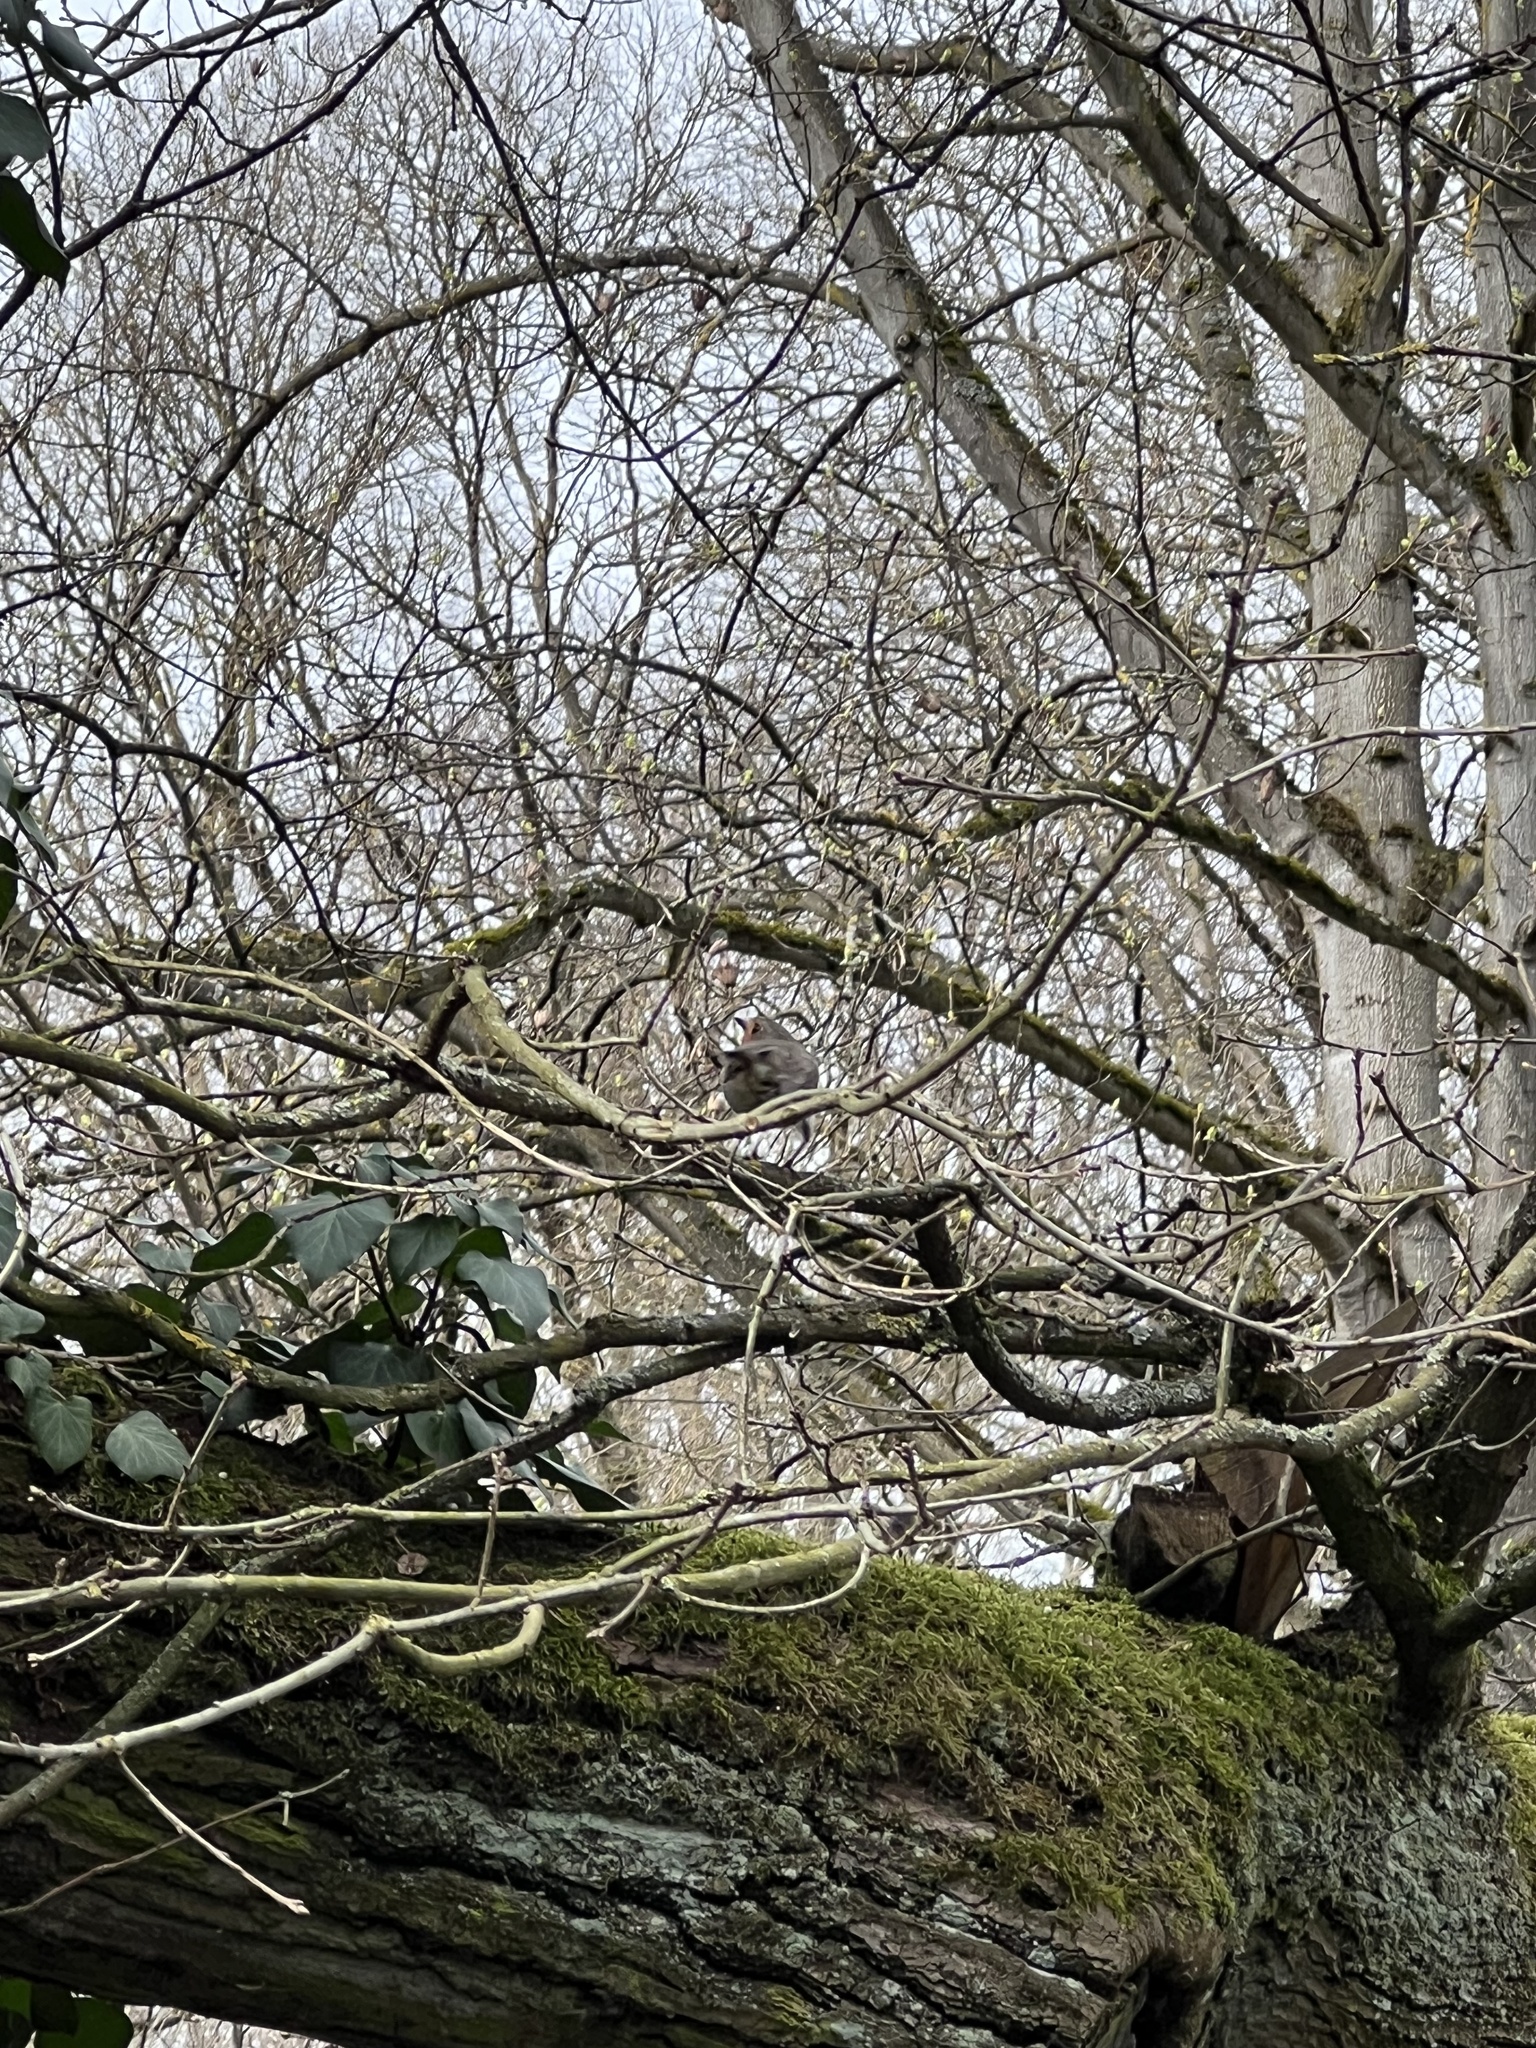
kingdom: Animalia
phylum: Chordata
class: Aves
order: Passeriformes
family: Muscicapidae
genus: Erithacus
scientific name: Erithacus rubecula
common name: European robin
